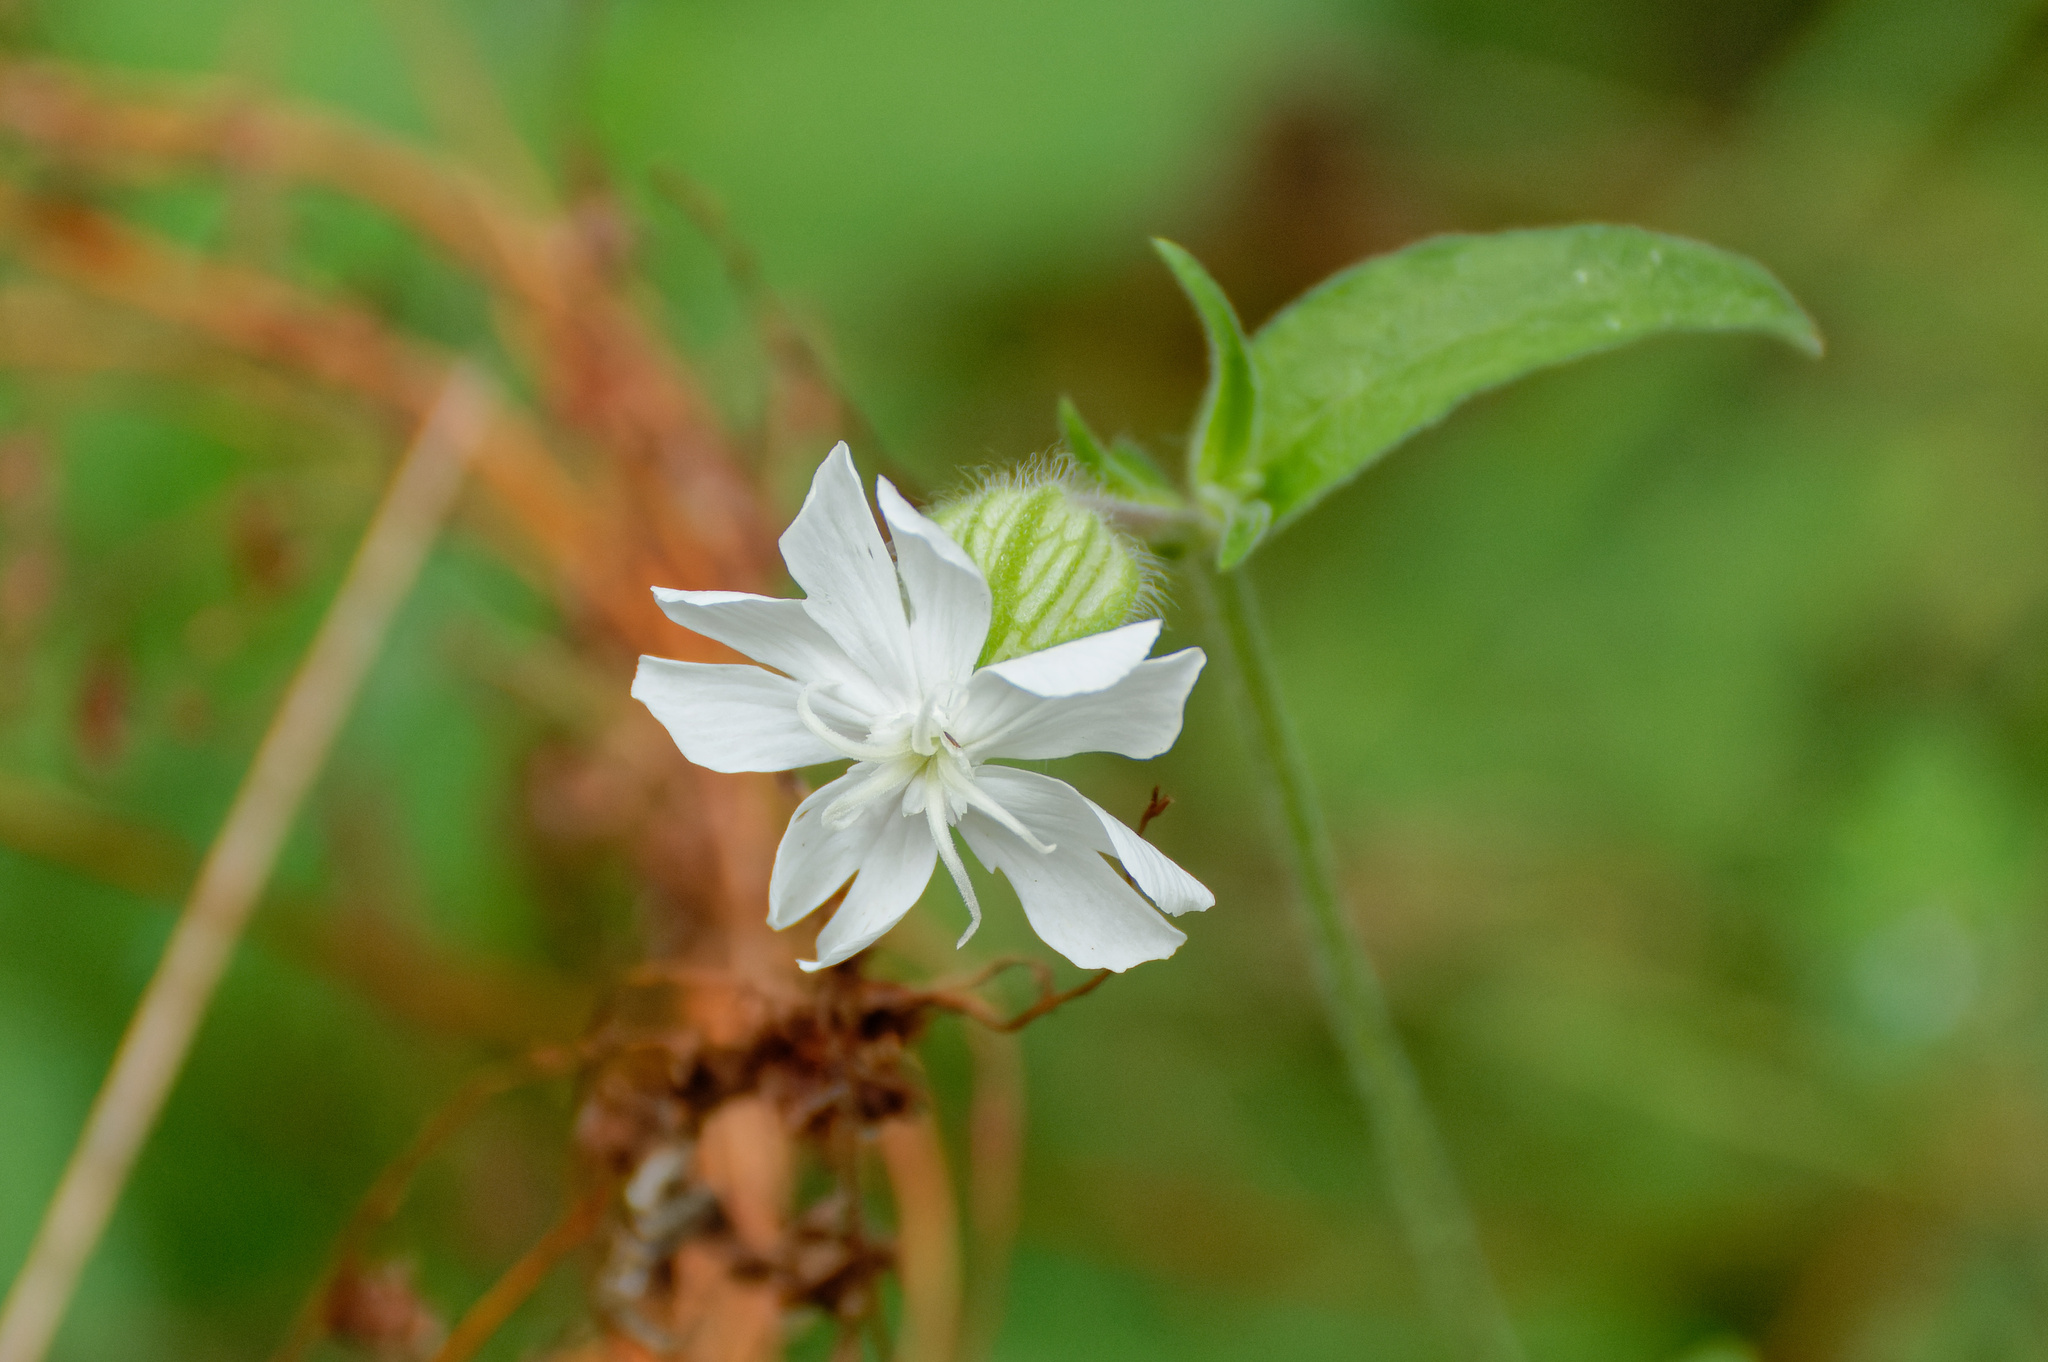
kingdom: Plantae
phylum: Tracheophyta
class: Magnoliopsida
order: Caryophyllales
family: Caryophyllaceae
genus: Silene
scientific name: Silene latifolia
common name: White campion
